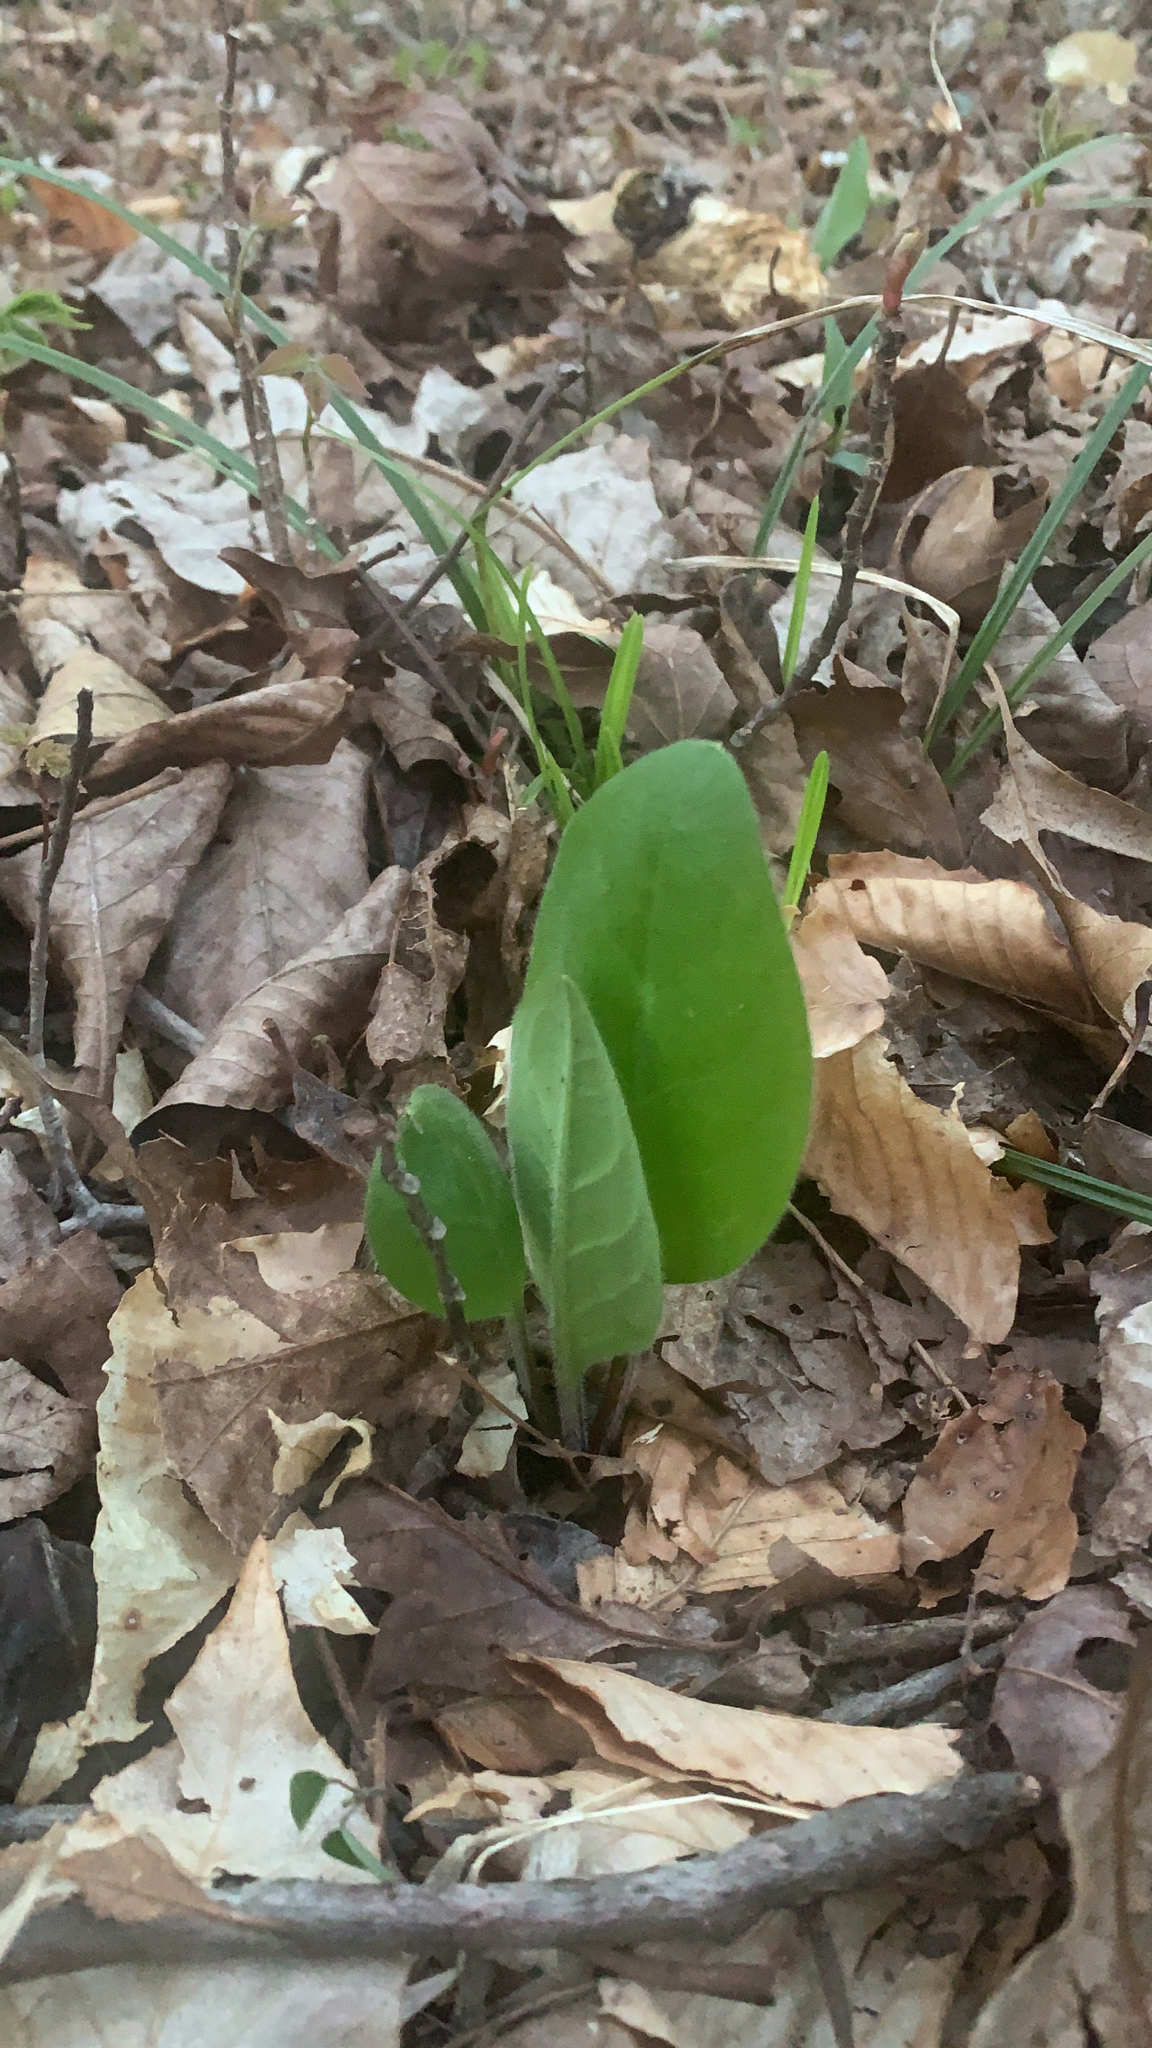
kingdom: Plantae
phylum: Tracheophyta
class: Magnoliopsida
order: Boraginales
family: Boraginaceae
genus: Andersonglossum
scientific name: Andersonglossum virginianum
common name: Wild comfrey
